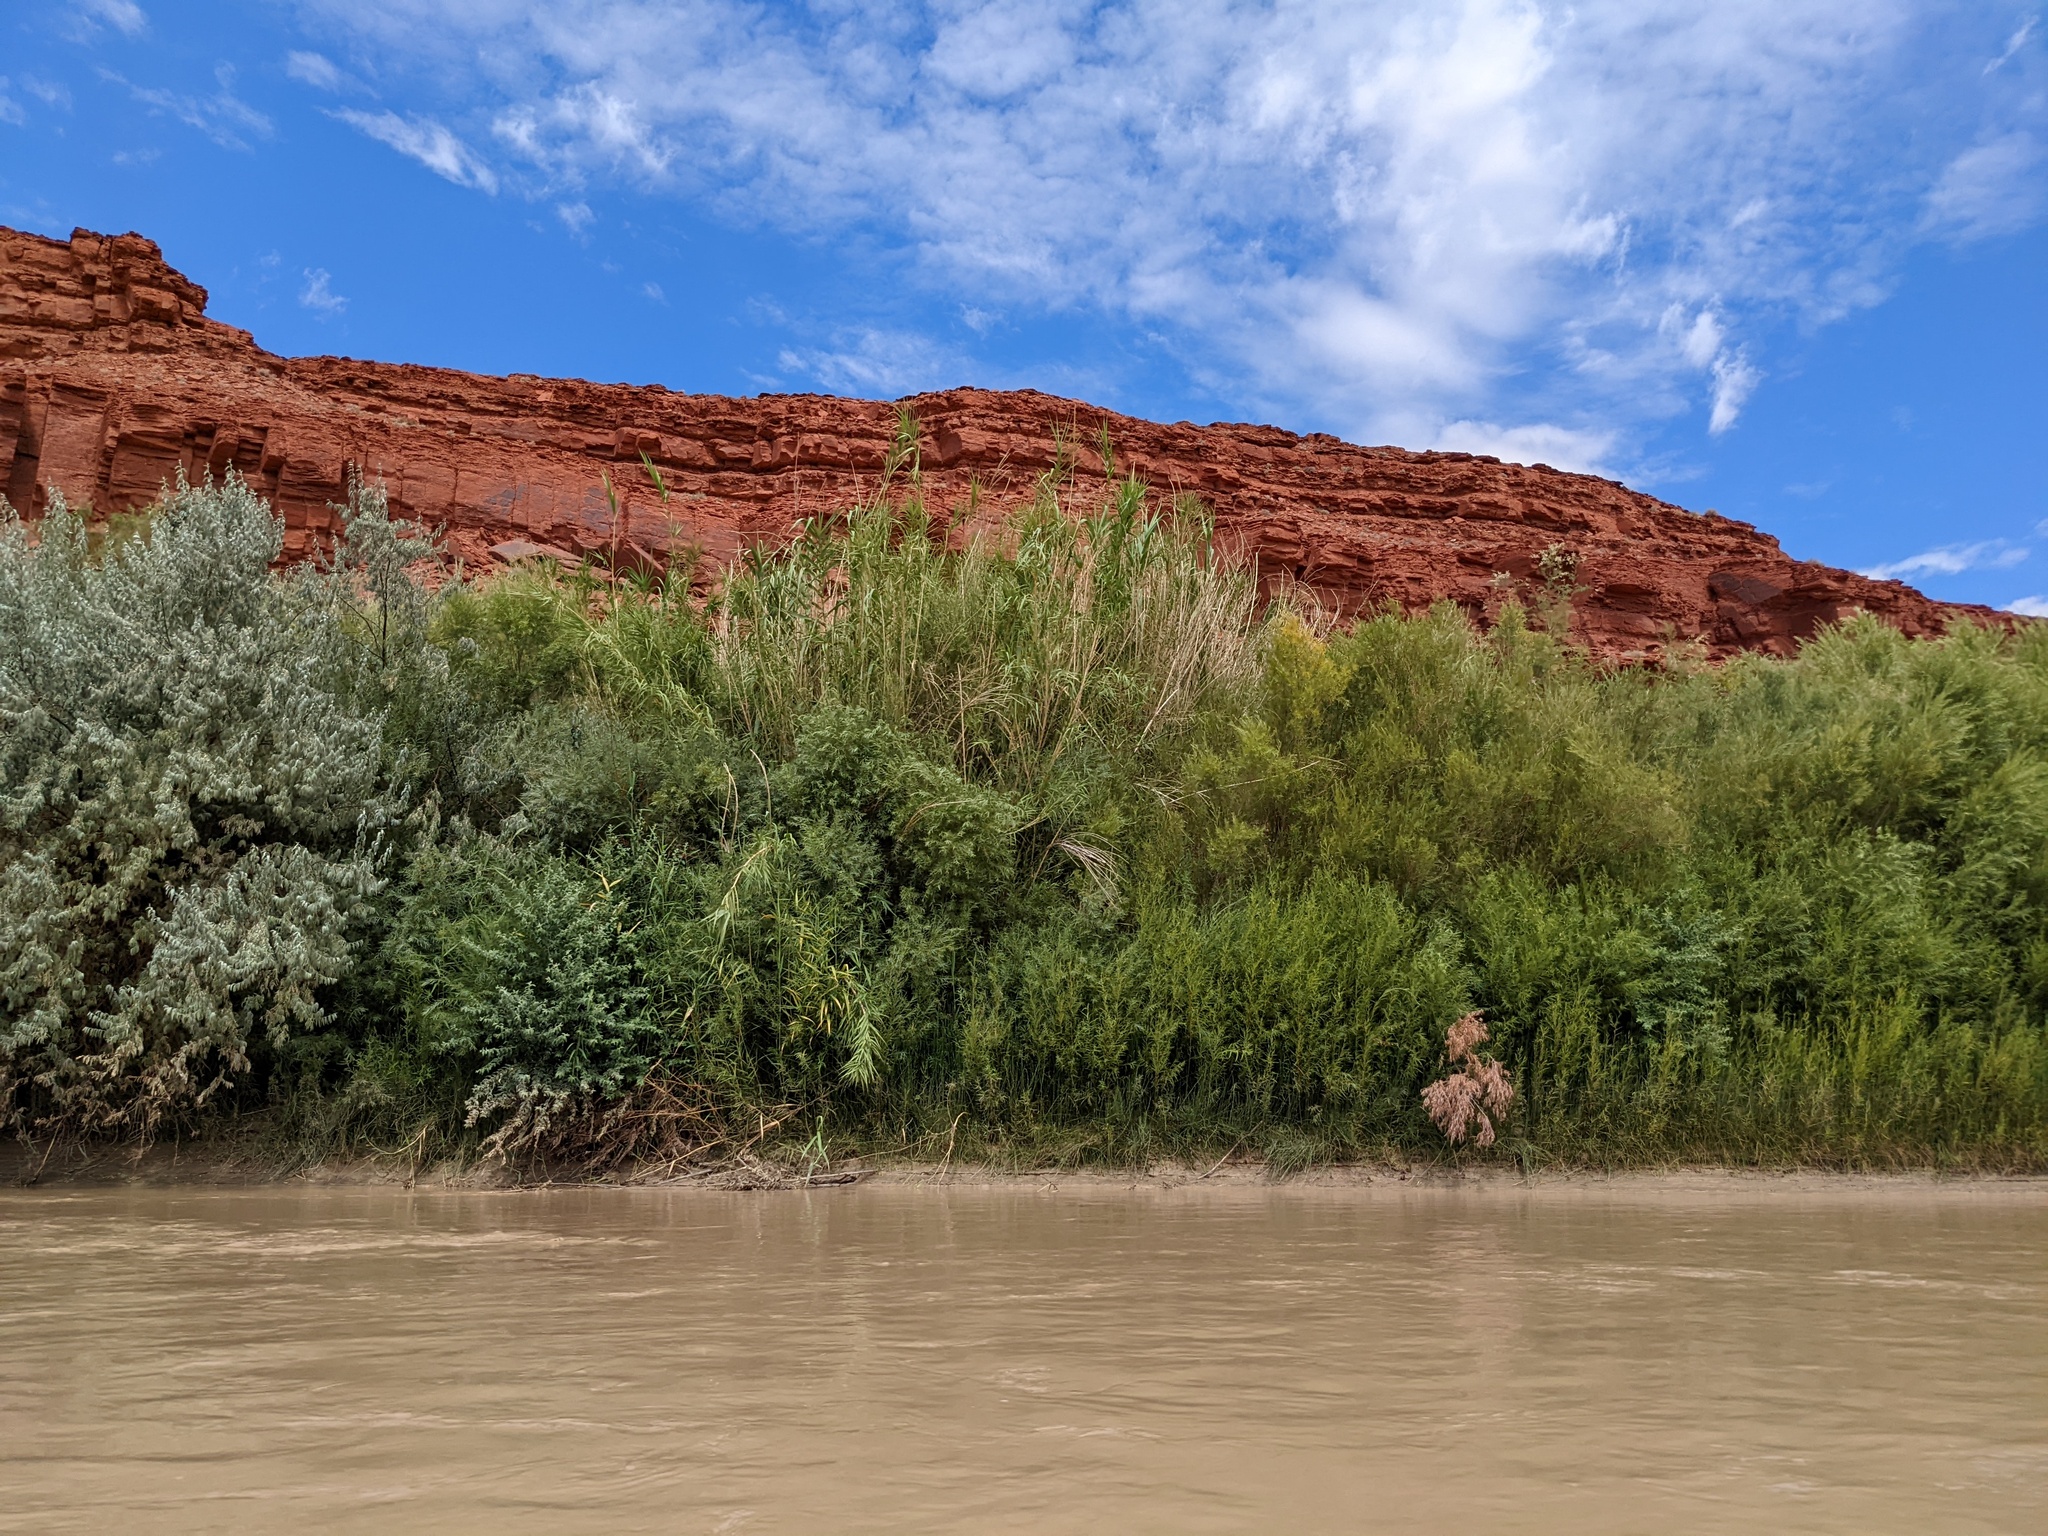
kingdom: Plantae
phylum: Tracheophyta
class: Liliopsida
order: Poales
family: Poaceae
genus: Arundo
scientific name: Arundo donax
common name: Giant reed
